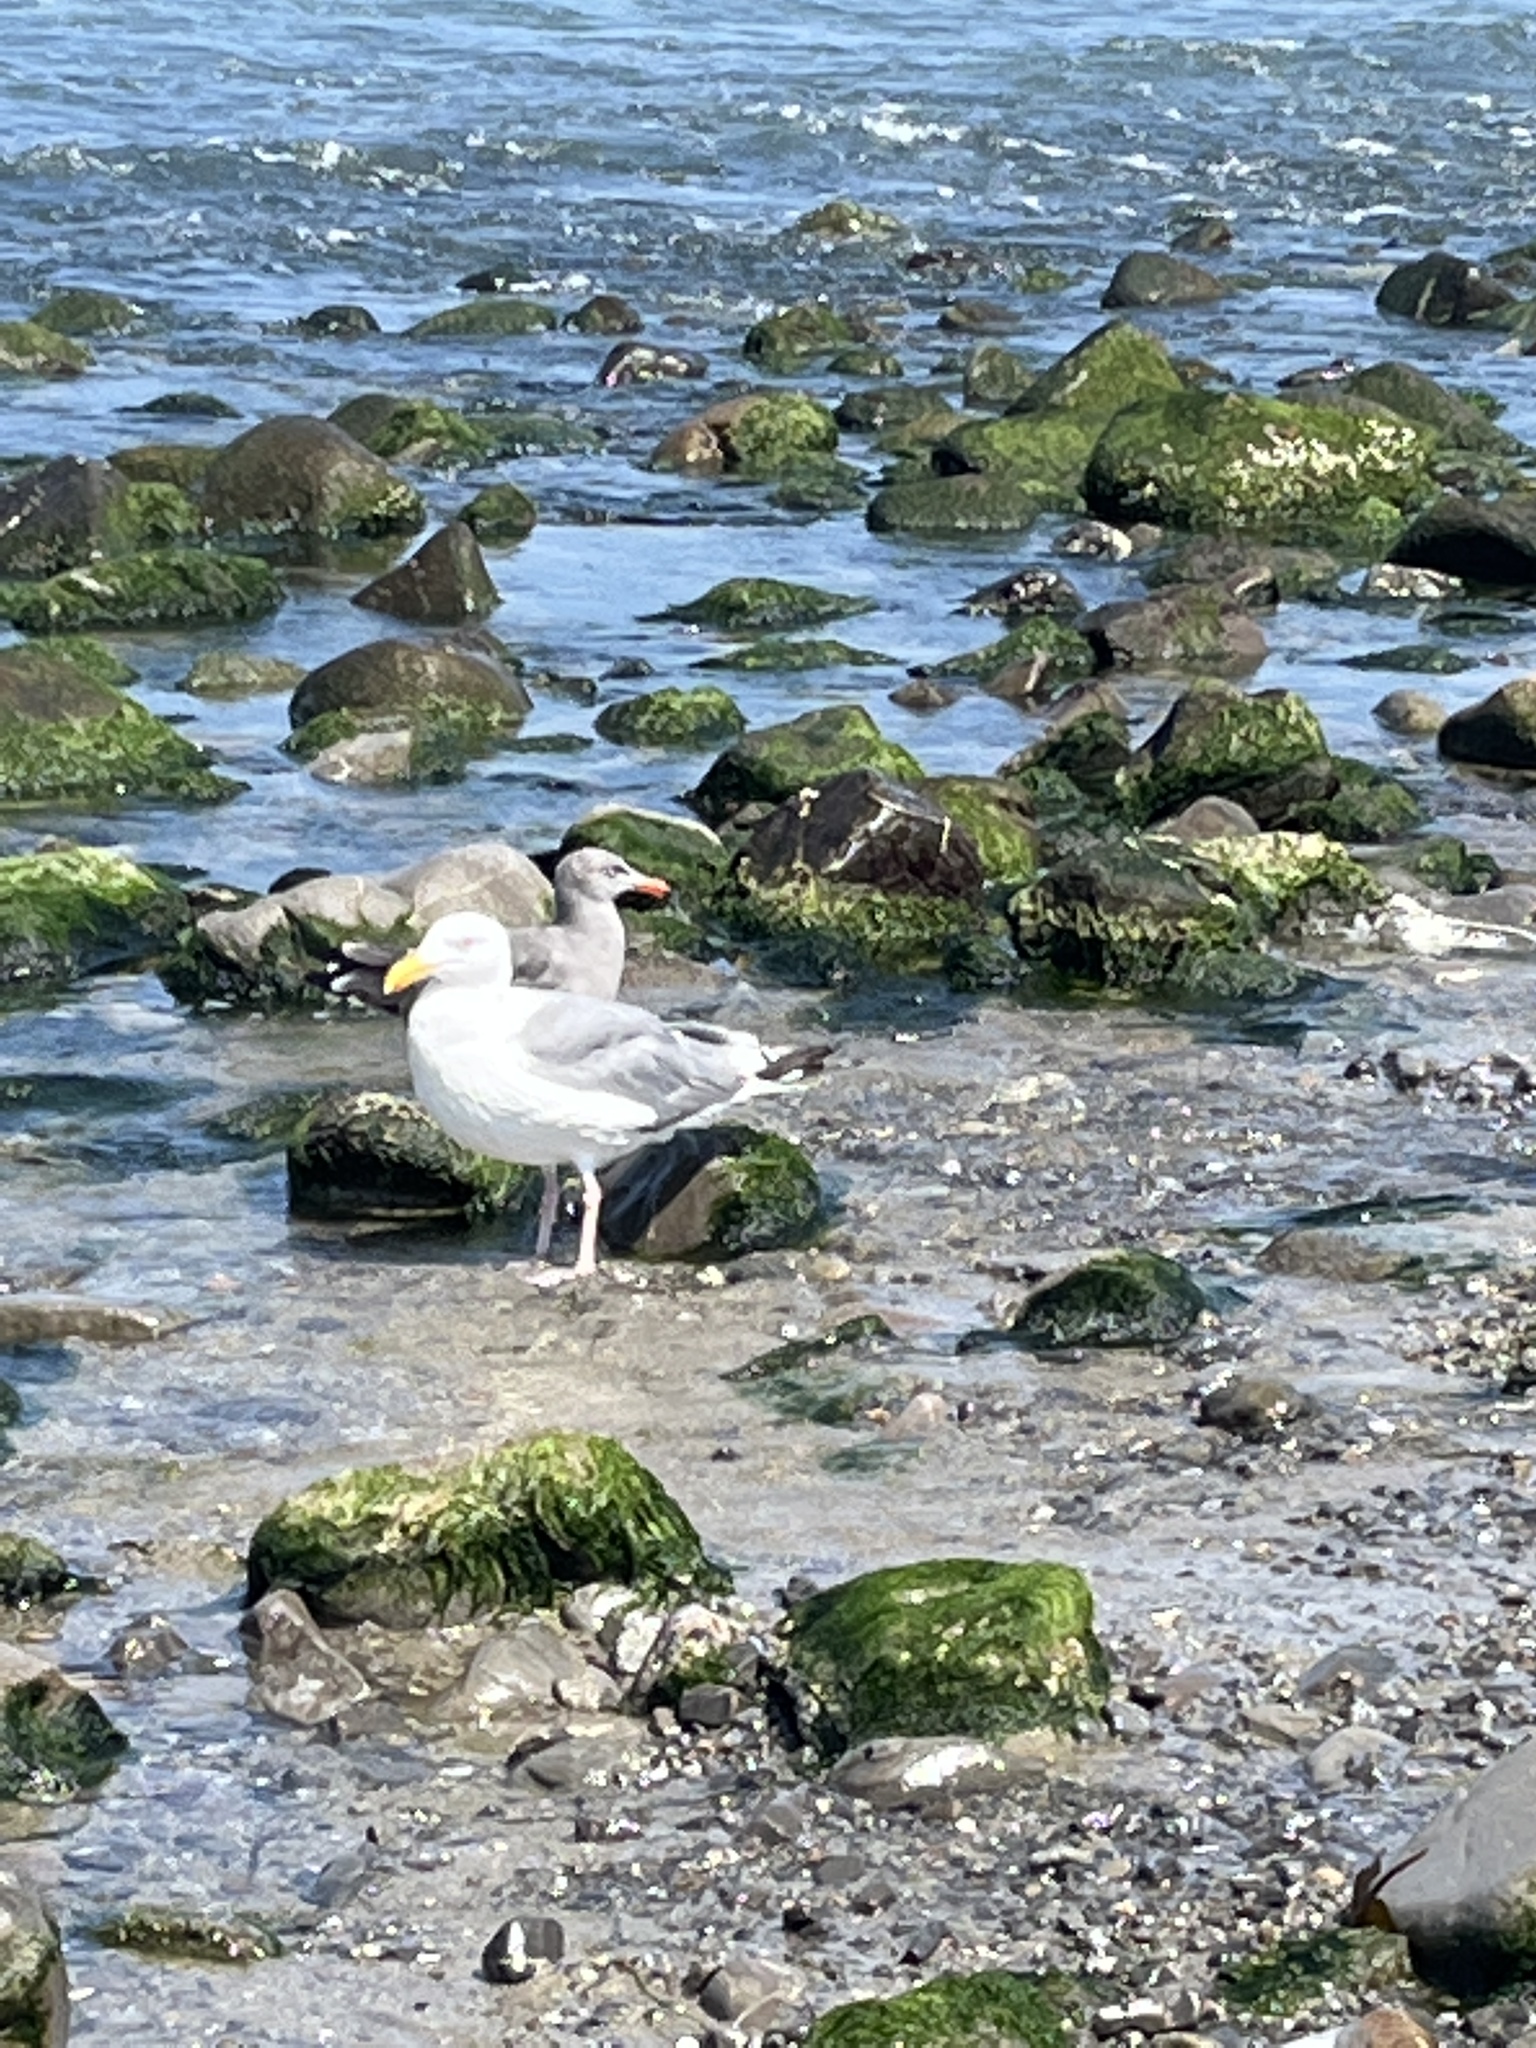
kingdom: Animalia
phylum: Chordata
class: Aves
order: Charadriiformes
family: Laridae
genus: Larus
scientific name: Larus occidentalis
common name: Western gull
